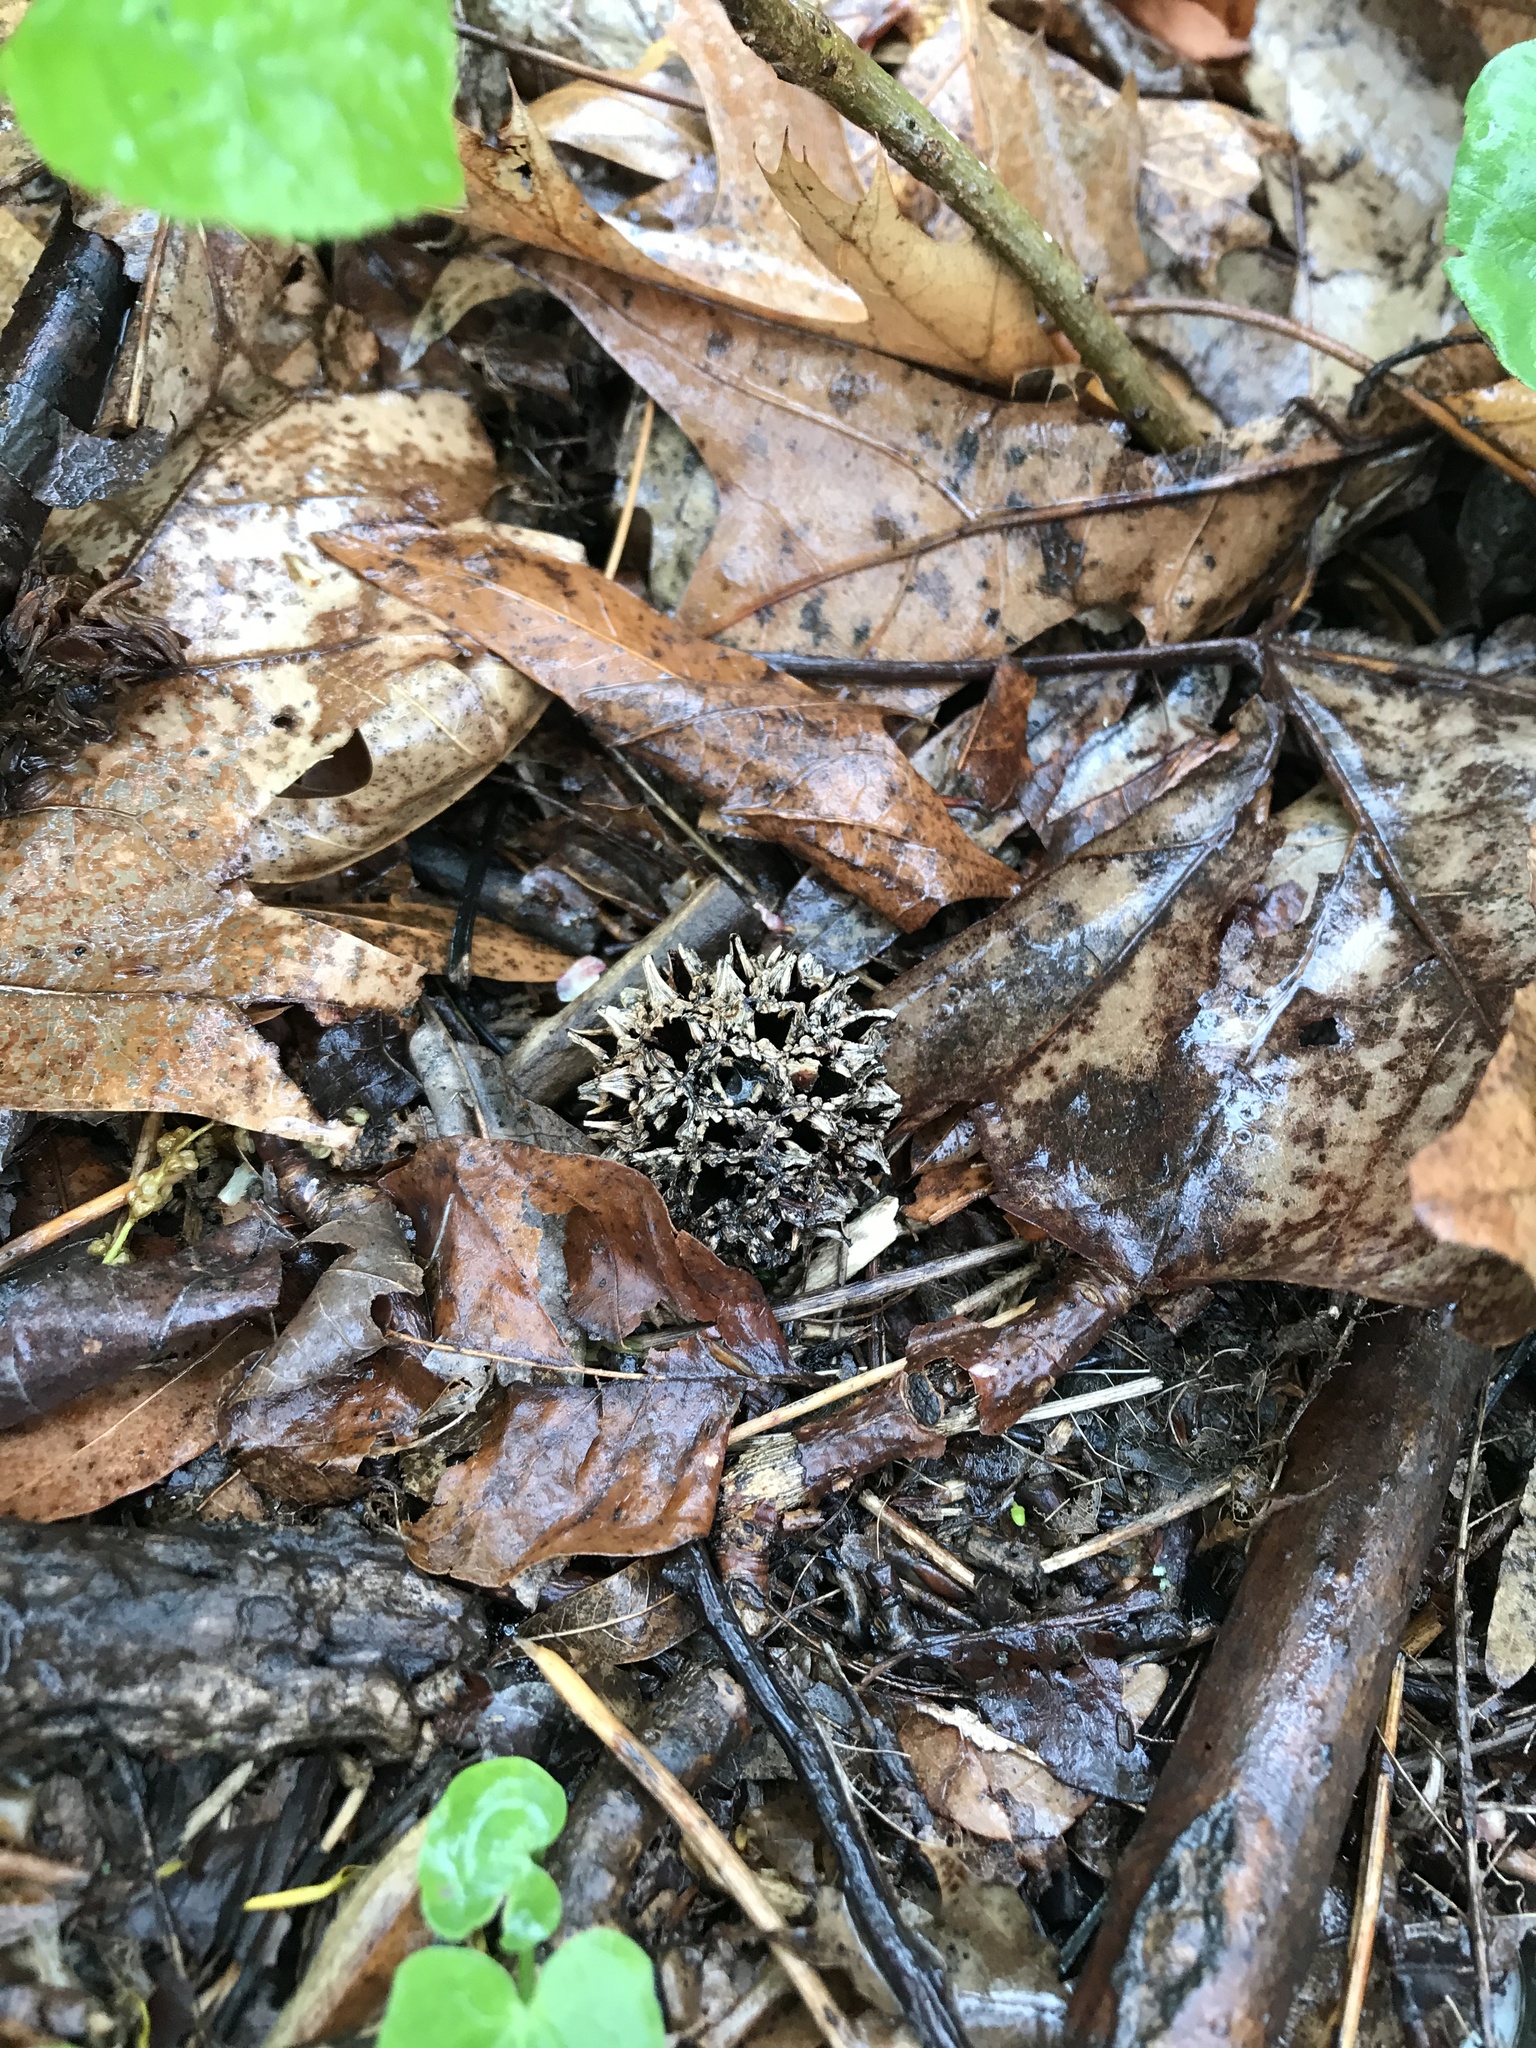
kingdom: Plantae
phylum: Tracheophyta
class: Magnoliopsida
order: Saxifragales
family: Altingiaceae
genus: Liquidambar
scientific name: Liquidambar styraciflua
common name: Sweet gum
